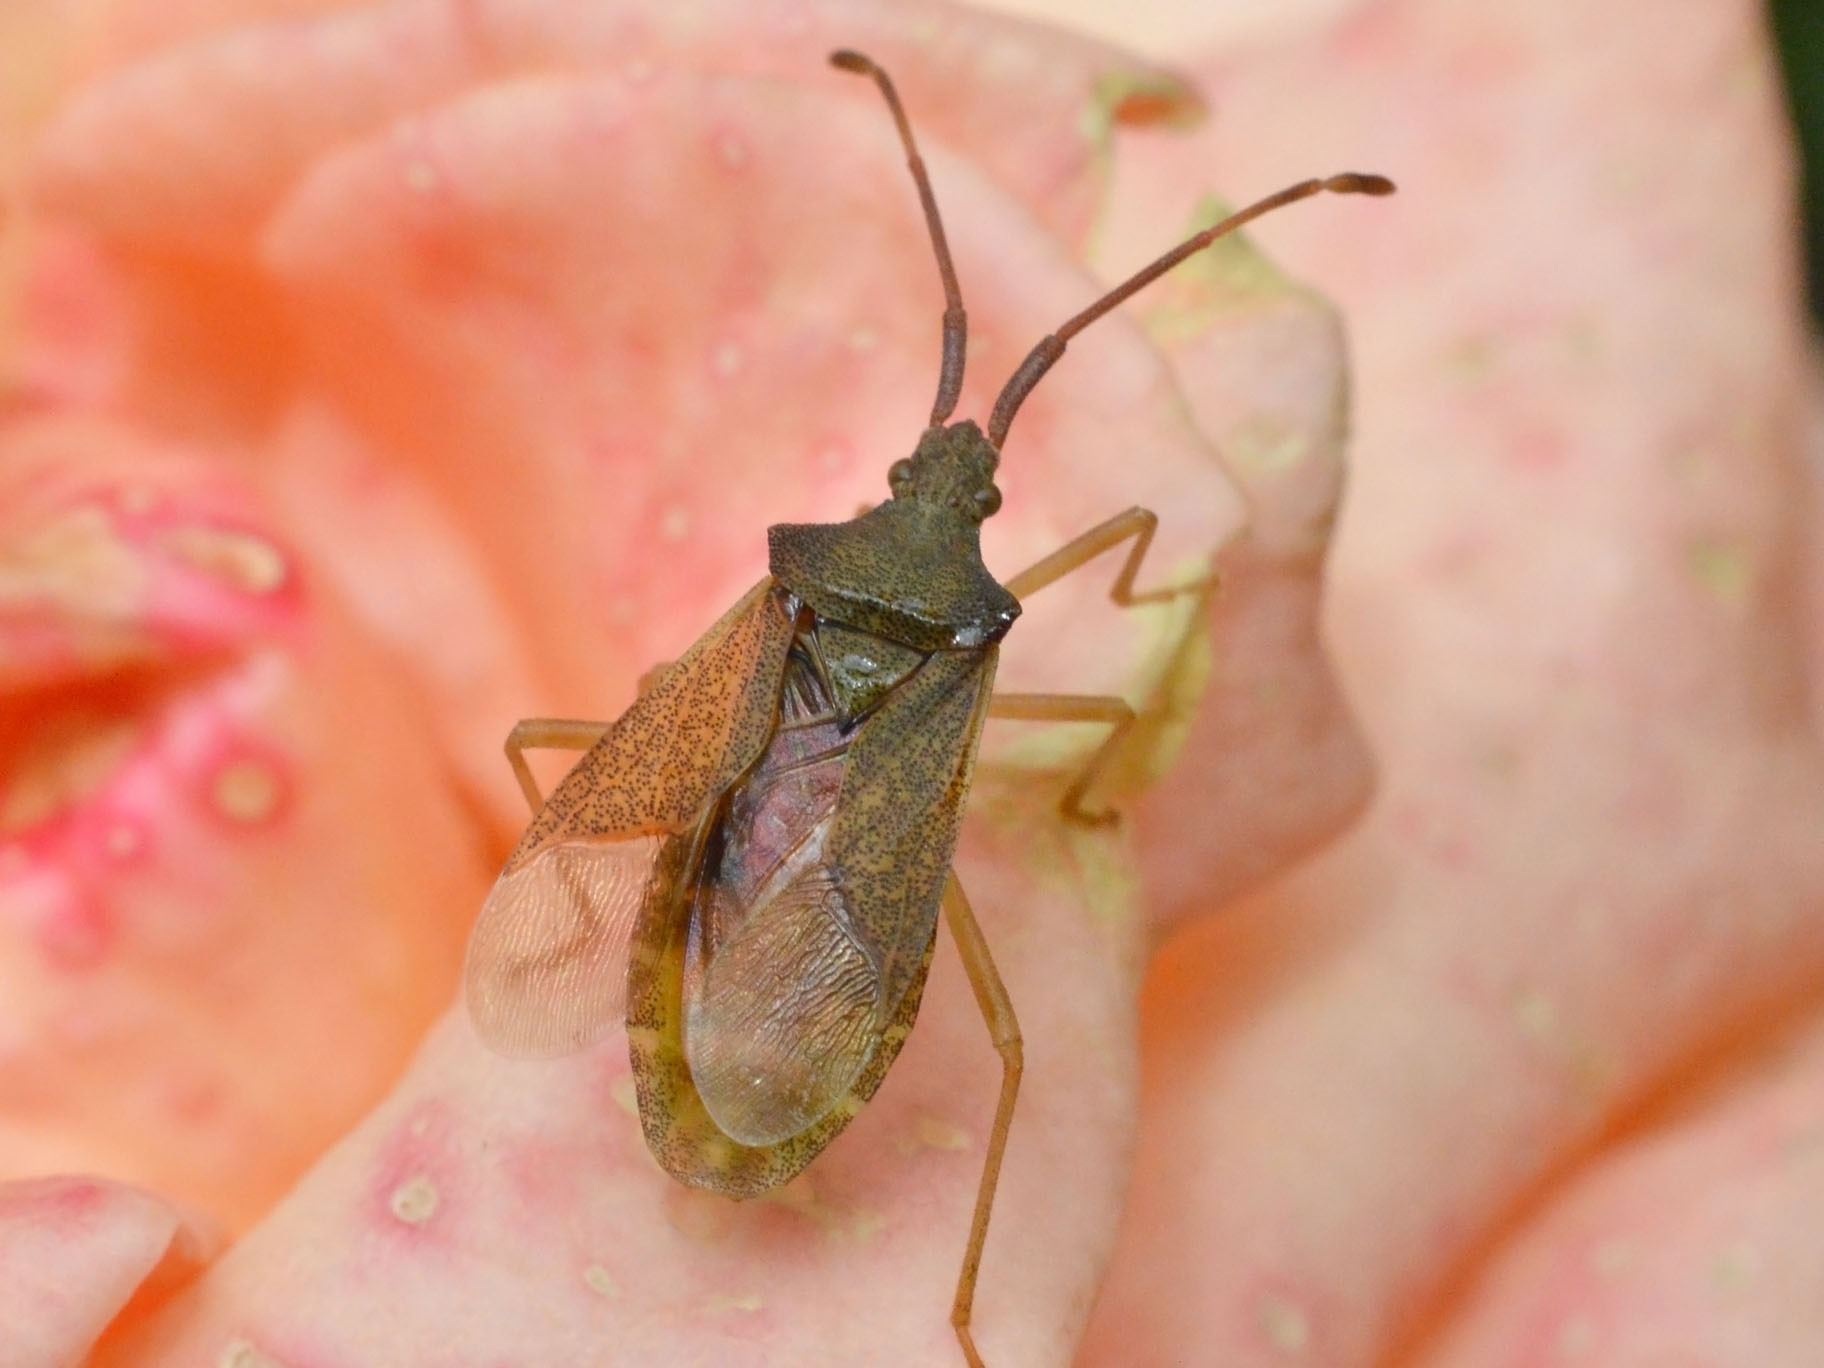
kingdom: Animalia
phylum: Arthropoda
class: Insecta
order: Hemiptera
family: Coreidae
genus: Gonocerus
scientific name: Gonocerus acuteangulatus
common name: Box bug
